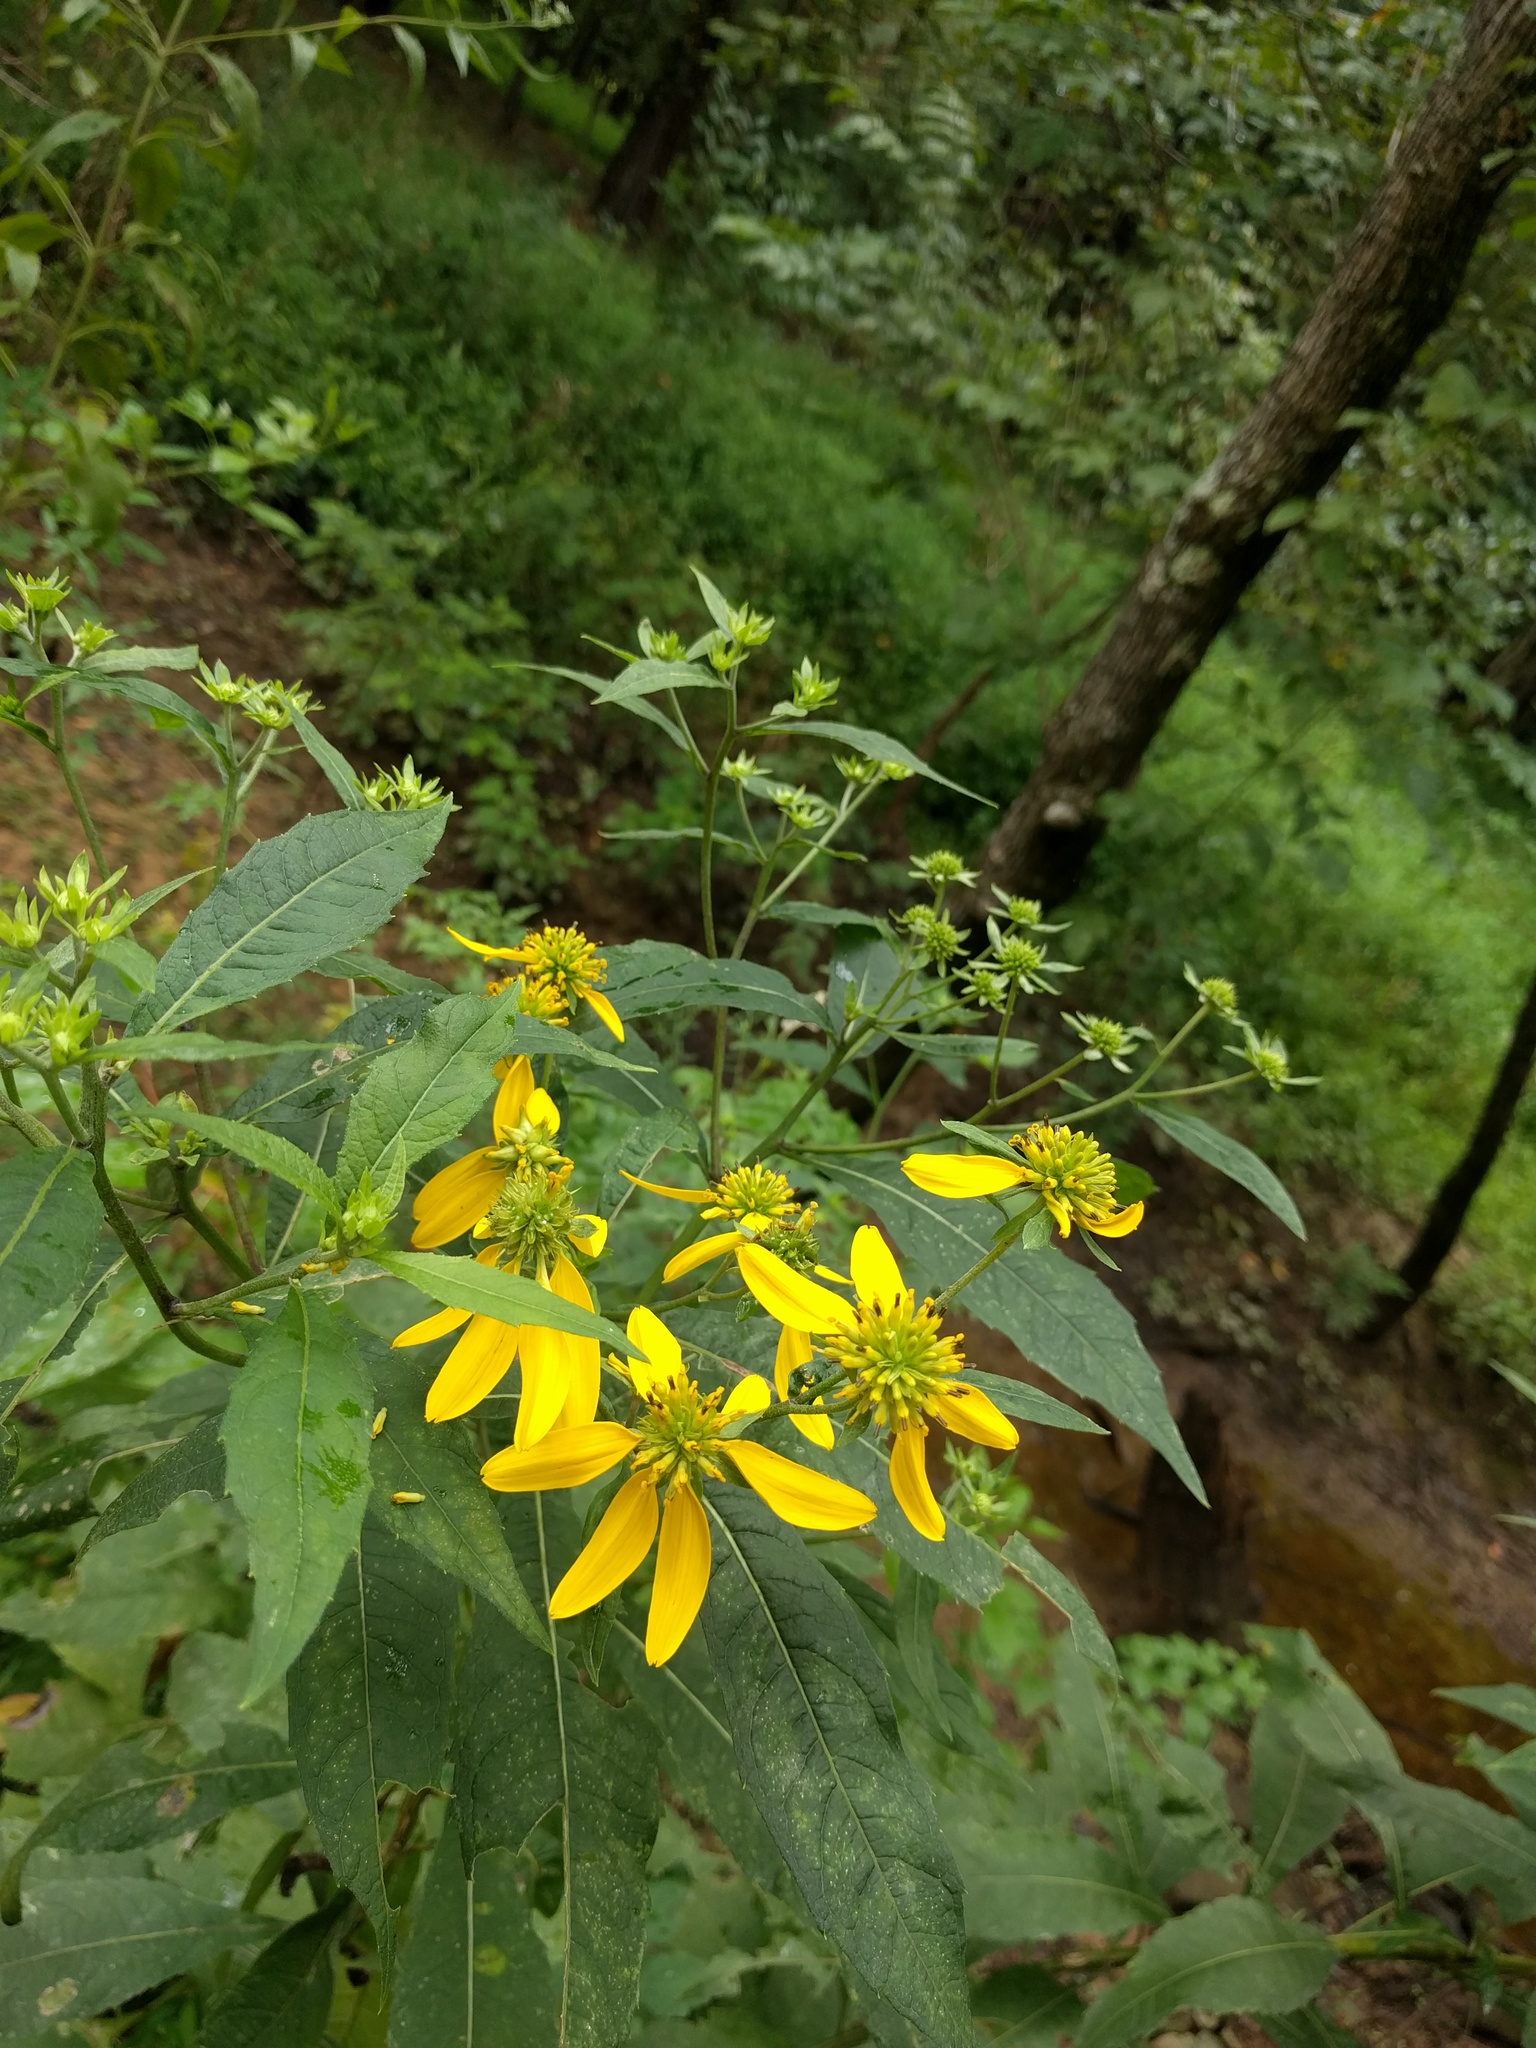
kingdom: Plantae
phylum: Tracheophyta
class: Magnoliopsida
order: Asterales
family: Asteraceae
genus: Verbesina
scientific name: Verbesina alternifolia
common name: Wingstem
